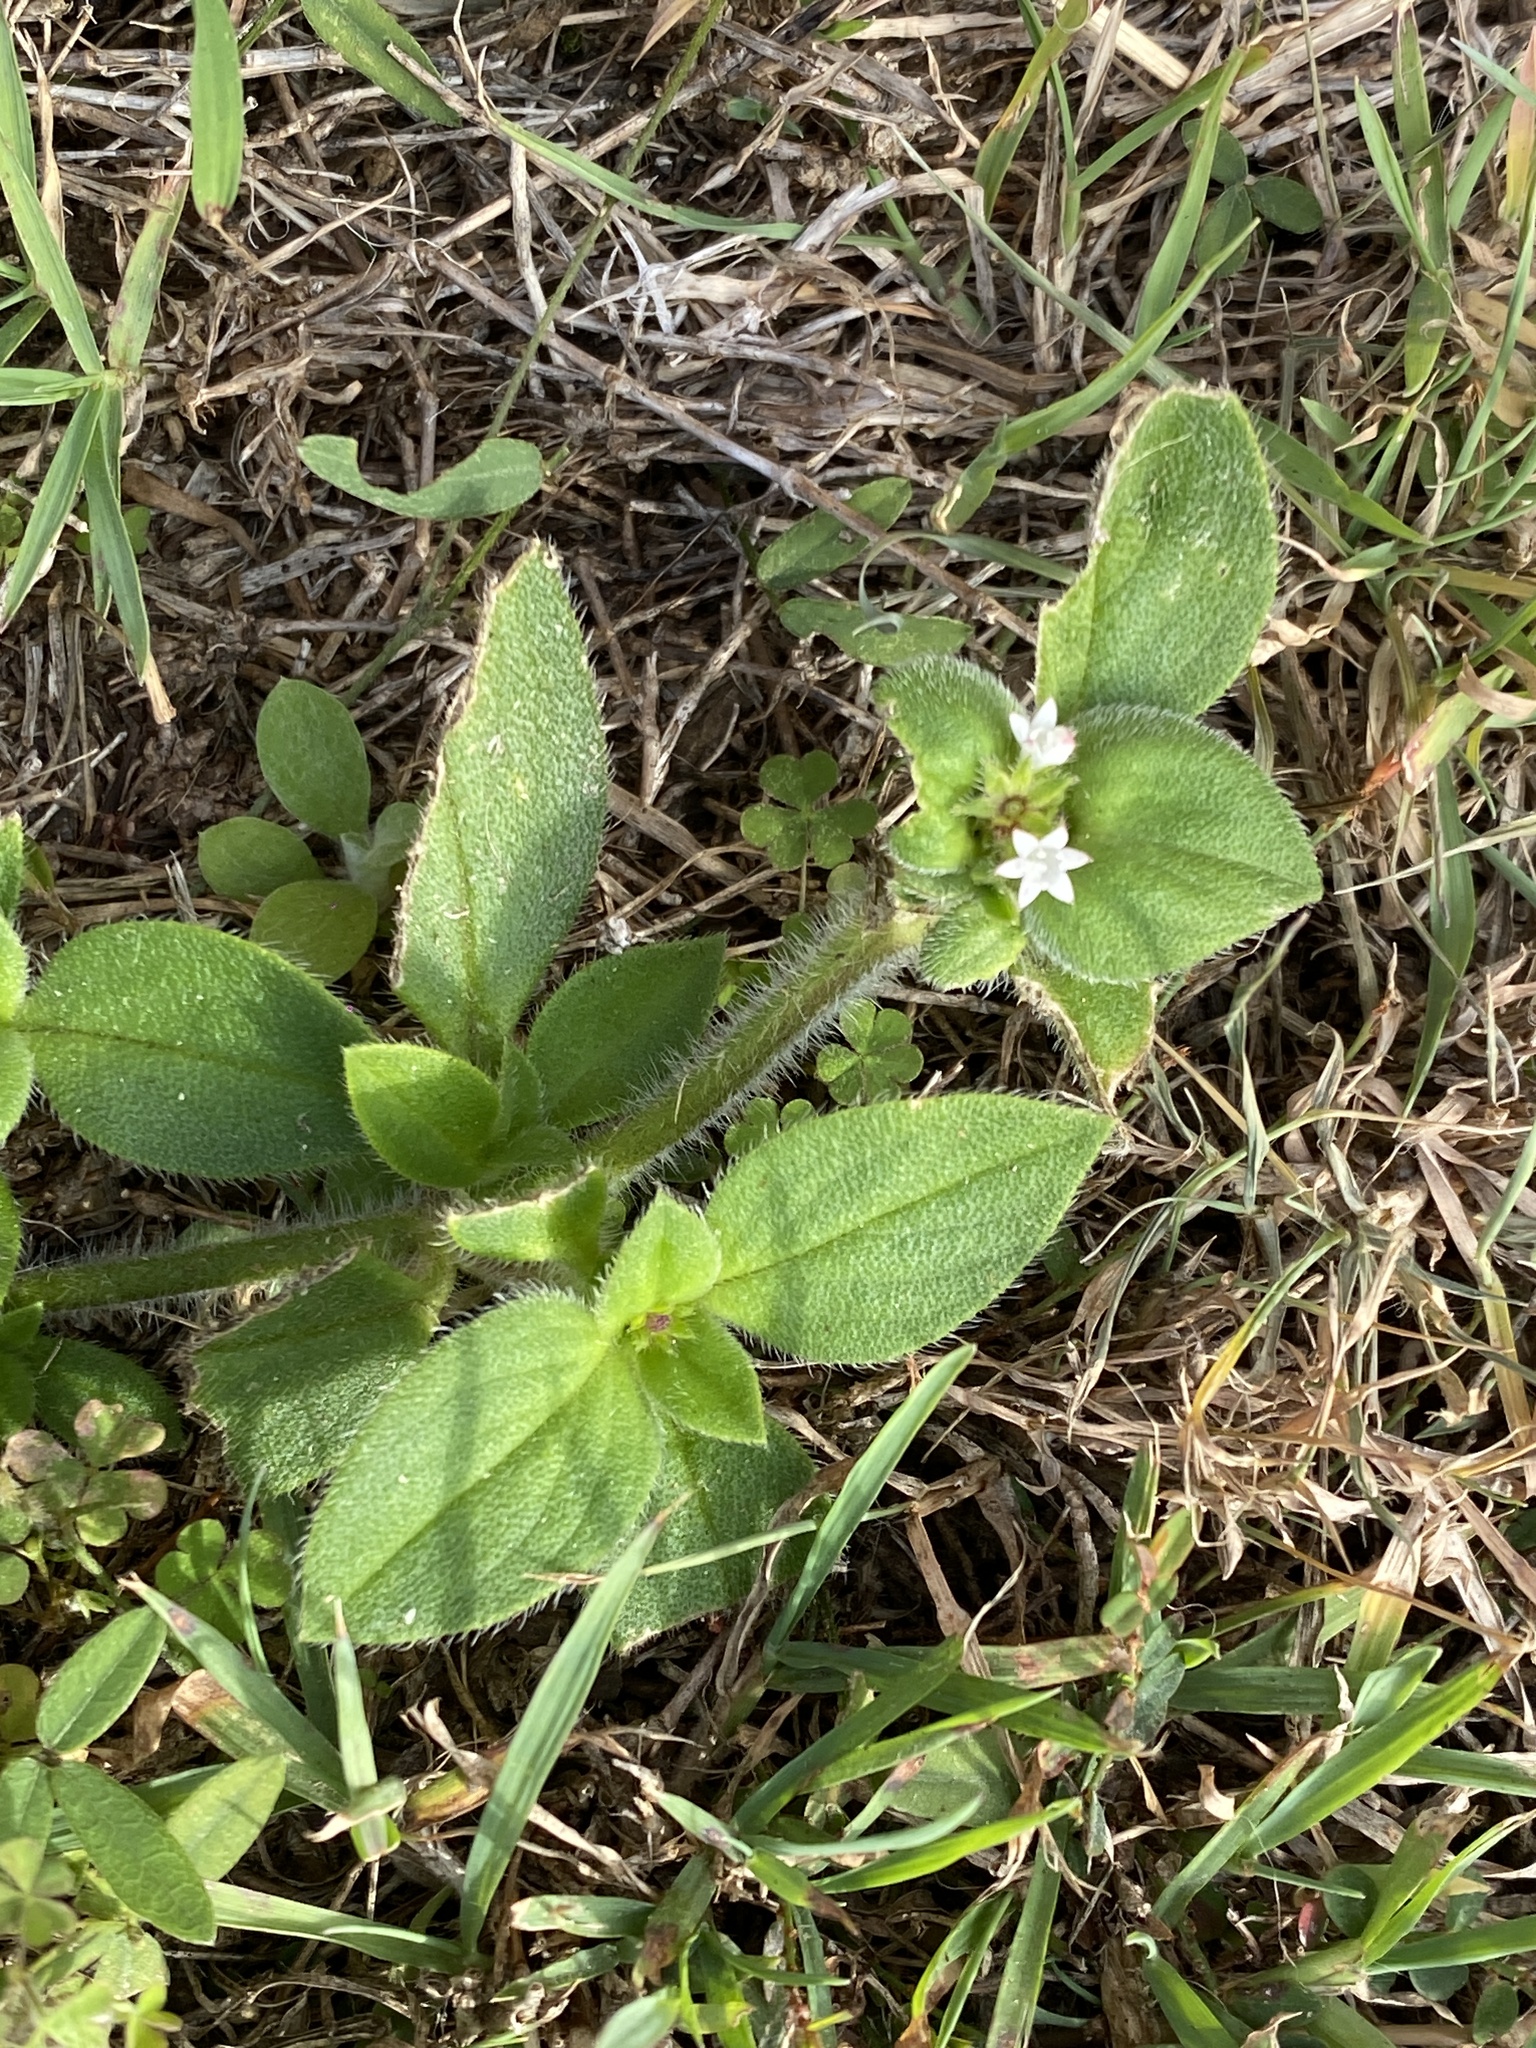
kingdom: Plantae
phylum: Tracheophyta
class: Magnoliopsida
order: Gentianales
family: Rubiaceae
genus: Richardia
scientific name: Richardia brasiliensis
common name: Tropical mexican clover
